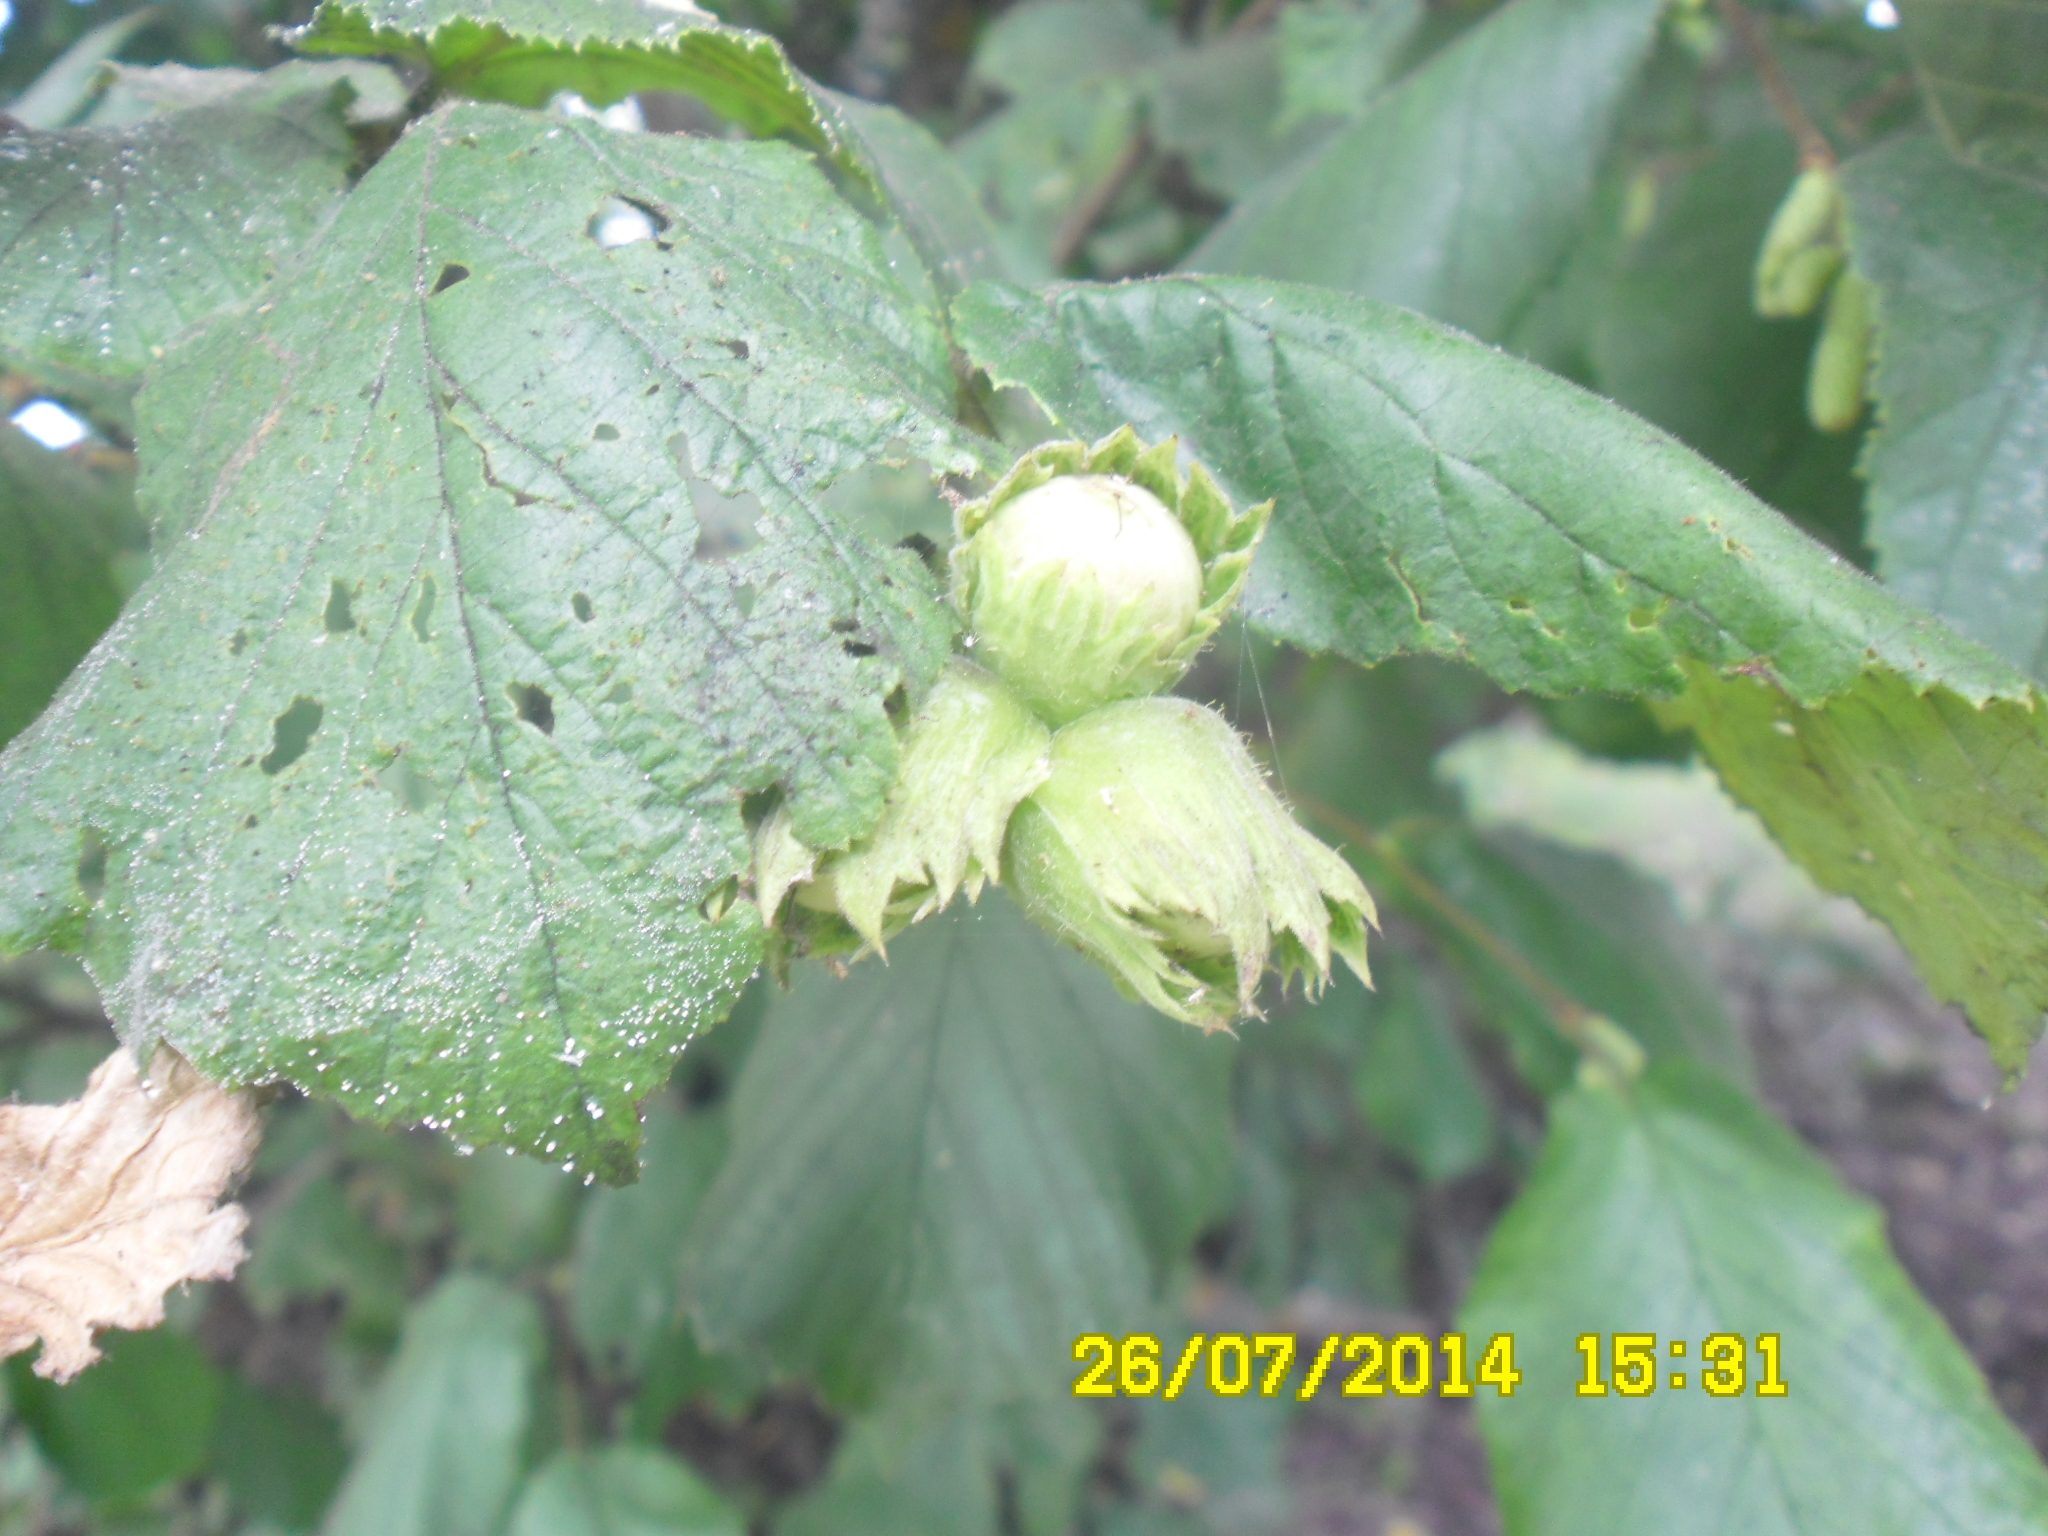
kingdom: Plantae
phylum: Tracheophyta
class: Magnoliopsida
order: Fagales
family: Betulaceae
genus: Corylus
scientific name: Corylus avellana
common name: European hazel
